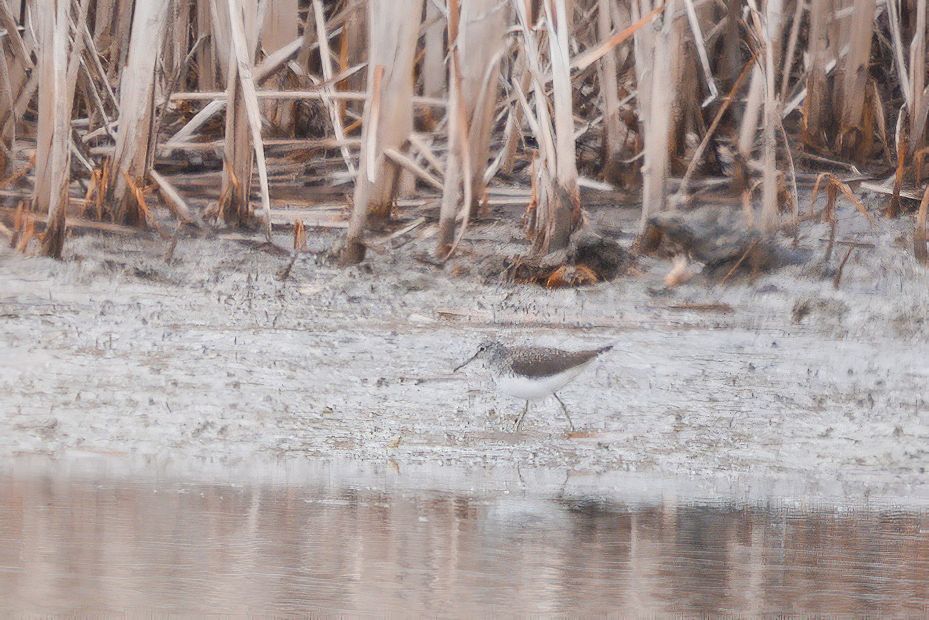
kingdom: Animalia
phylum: Chordata
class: Aves
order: Charadriiformes
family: Scolopacidae
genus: Tringa
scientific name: Tringa ochropus
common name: Green sandpiper
